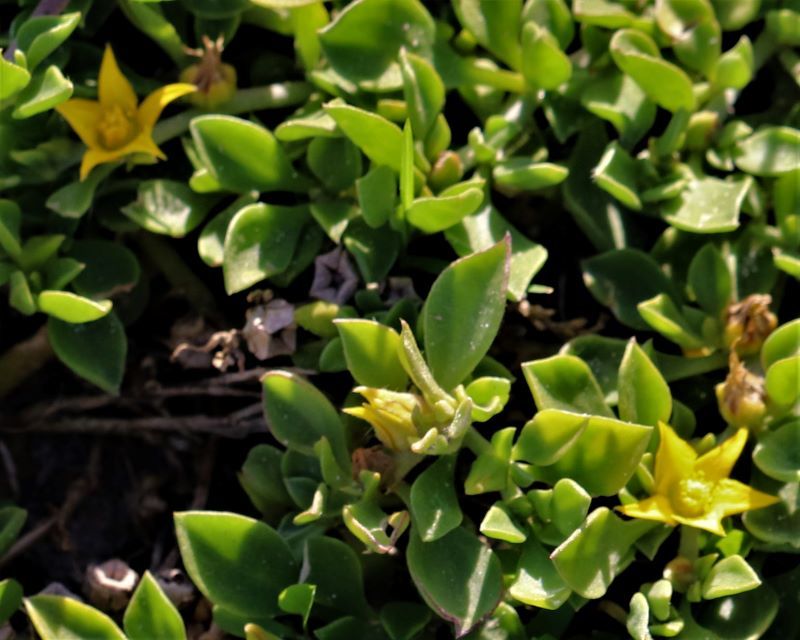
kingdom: Plantae
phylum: Tracheophyta
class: Magnoliopsida
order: Caryophyllales
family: Aizoaceae
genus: Aizoon
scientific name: Aizoon rigidum
